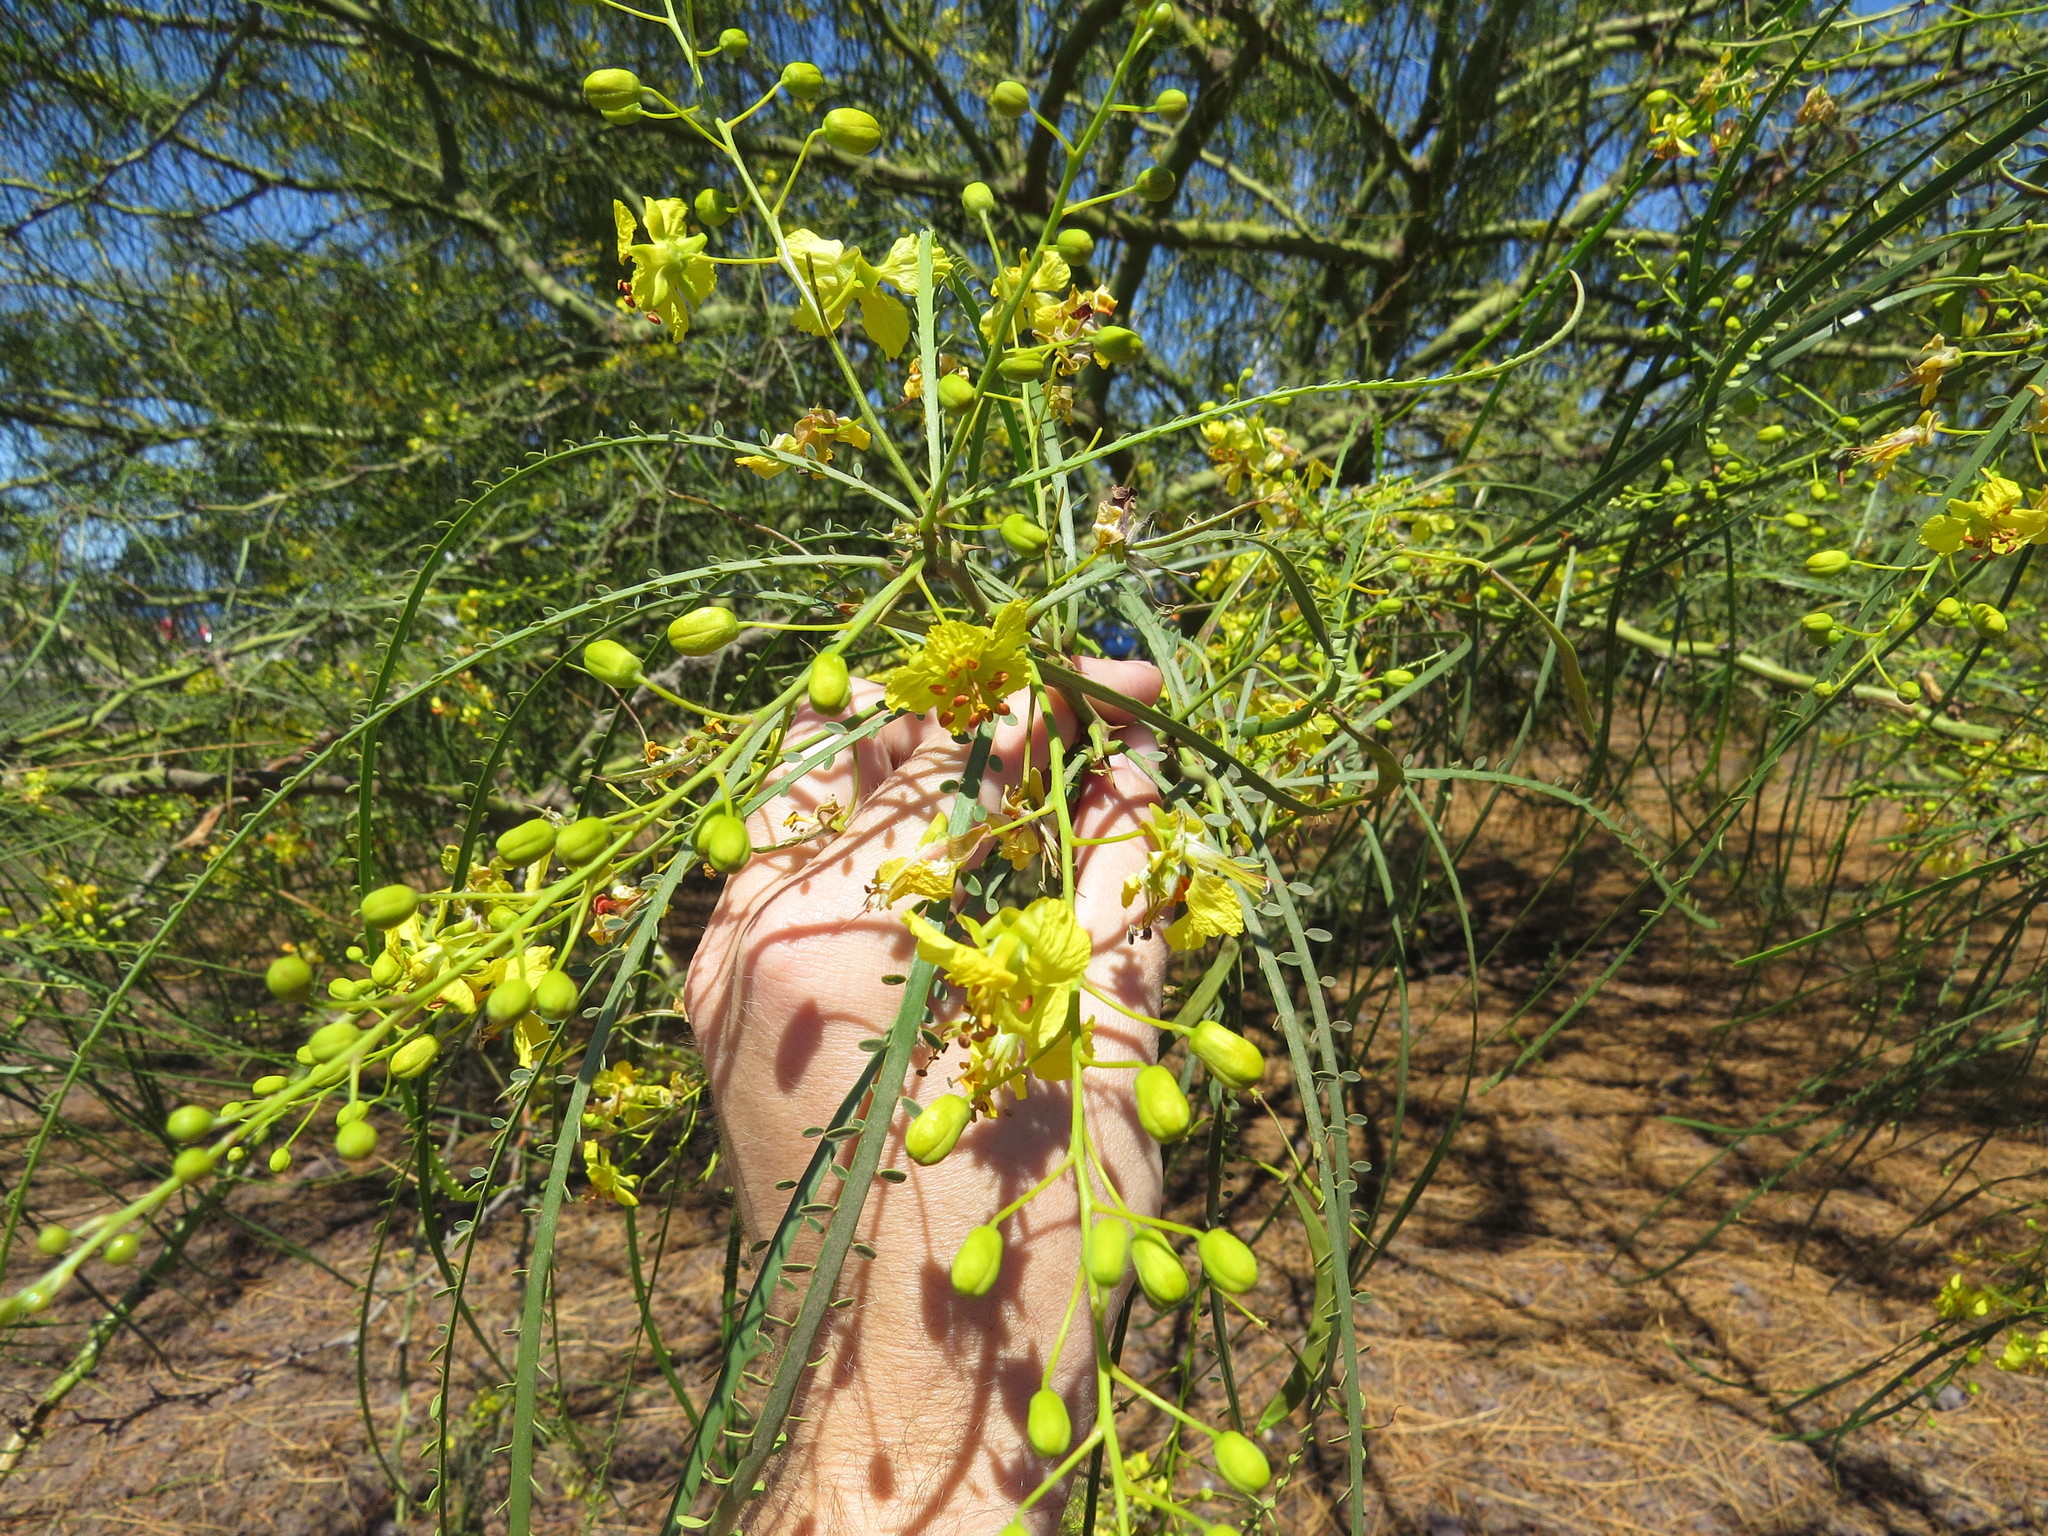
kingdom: Plantae
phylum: Tracheophyta
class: Magnoliopsida
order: Fabales
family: Fabaceae
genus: Parkinsonia
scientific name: Parkinsonia aculeata
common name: Jerusalem thorn
